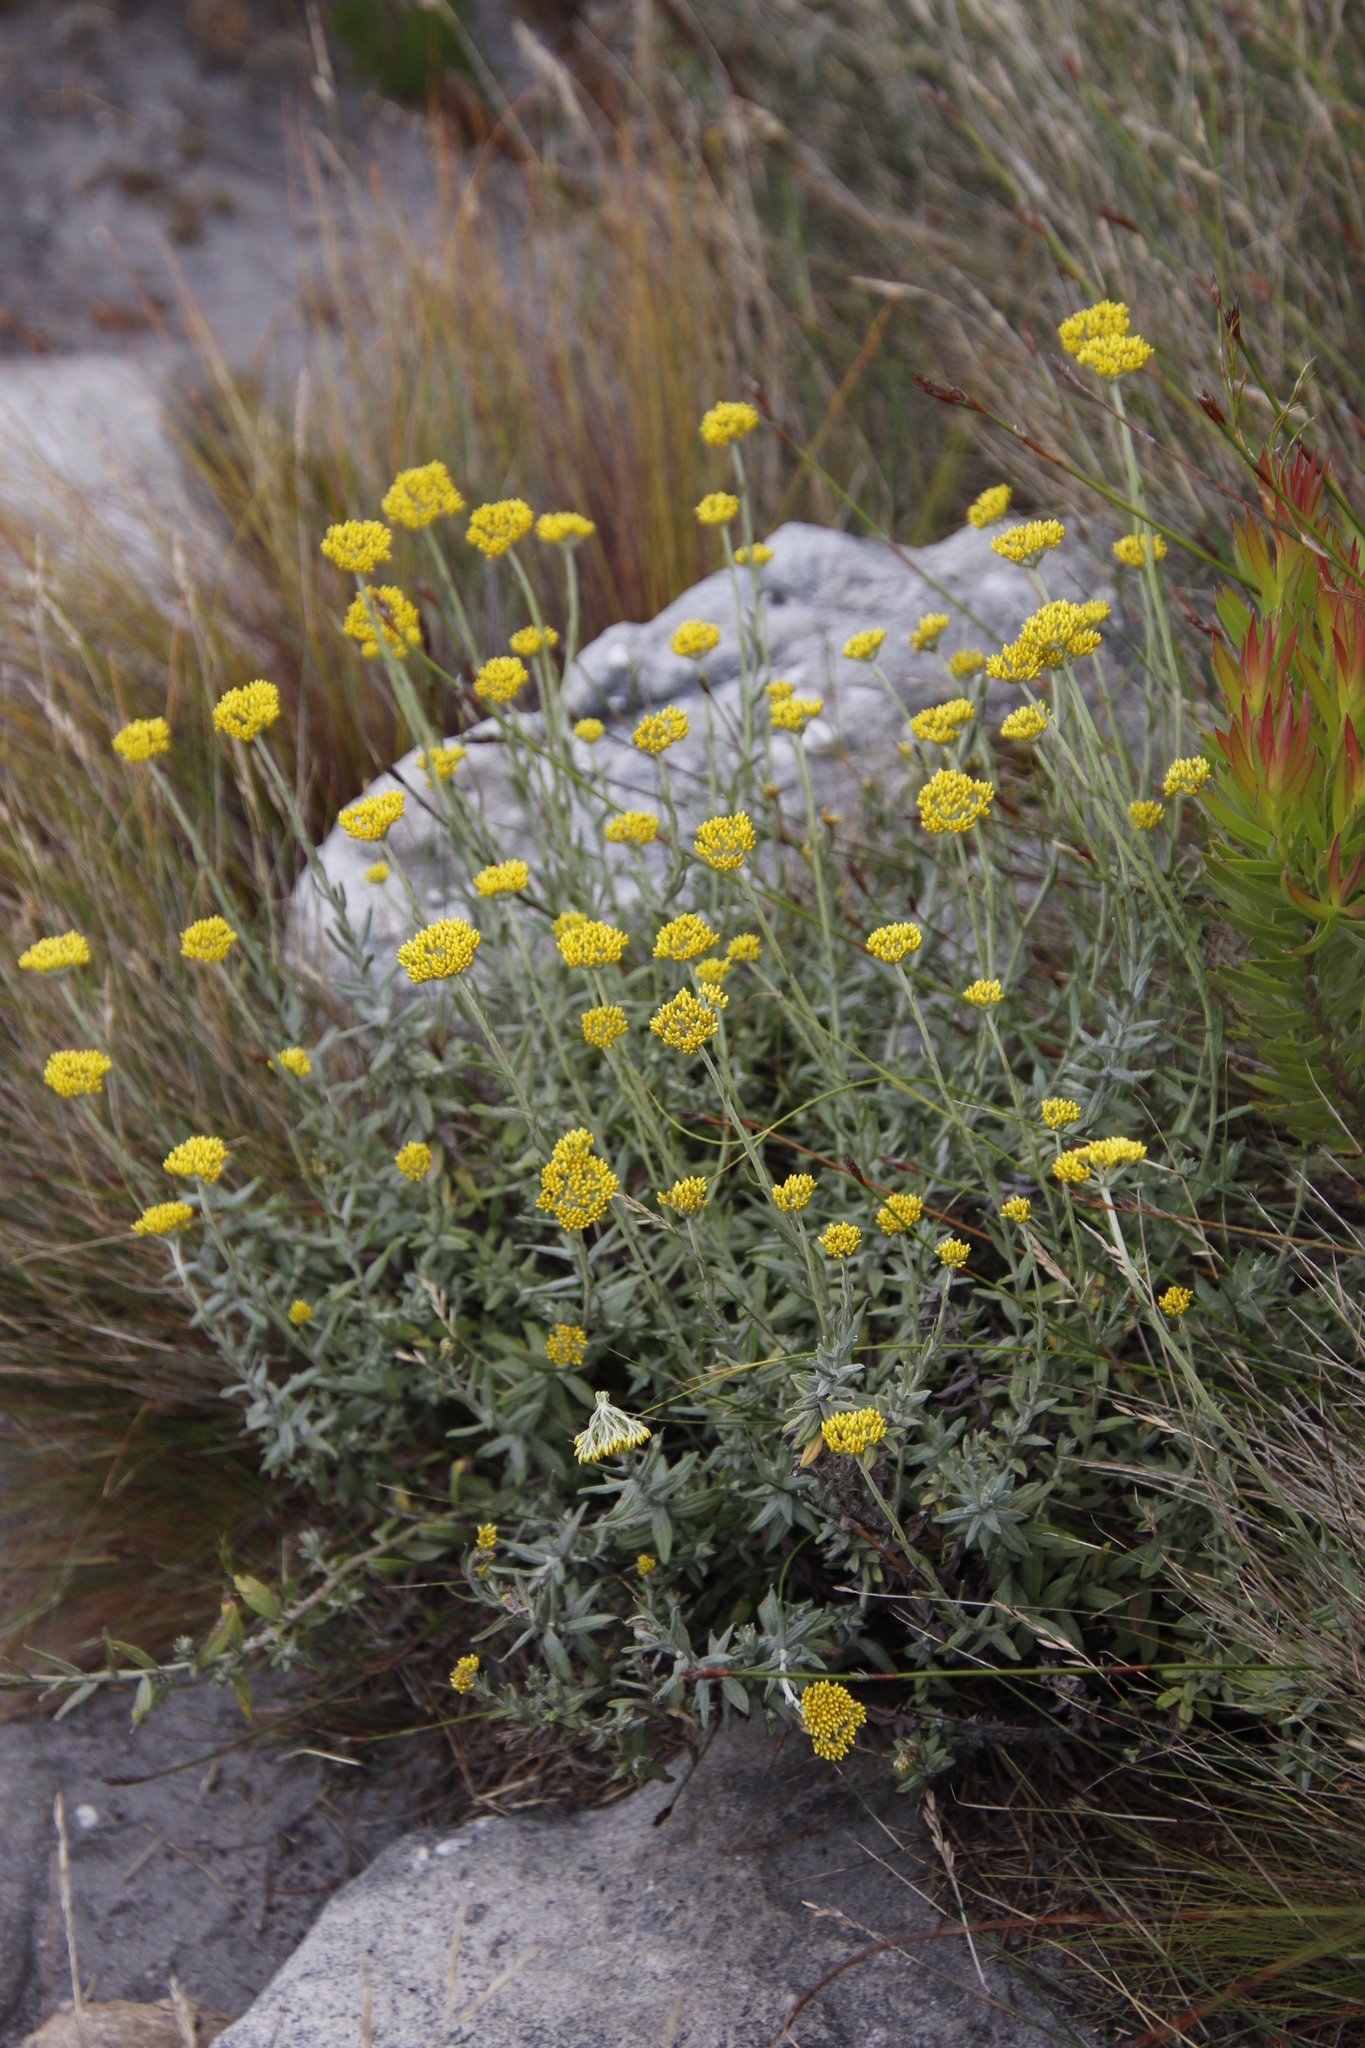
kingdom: Plantae
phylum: Tracheophyta
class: Magnoliopsida
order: Asterales
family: Asteraceae
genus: Helichrysum
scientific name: Helichrysum cymosum
